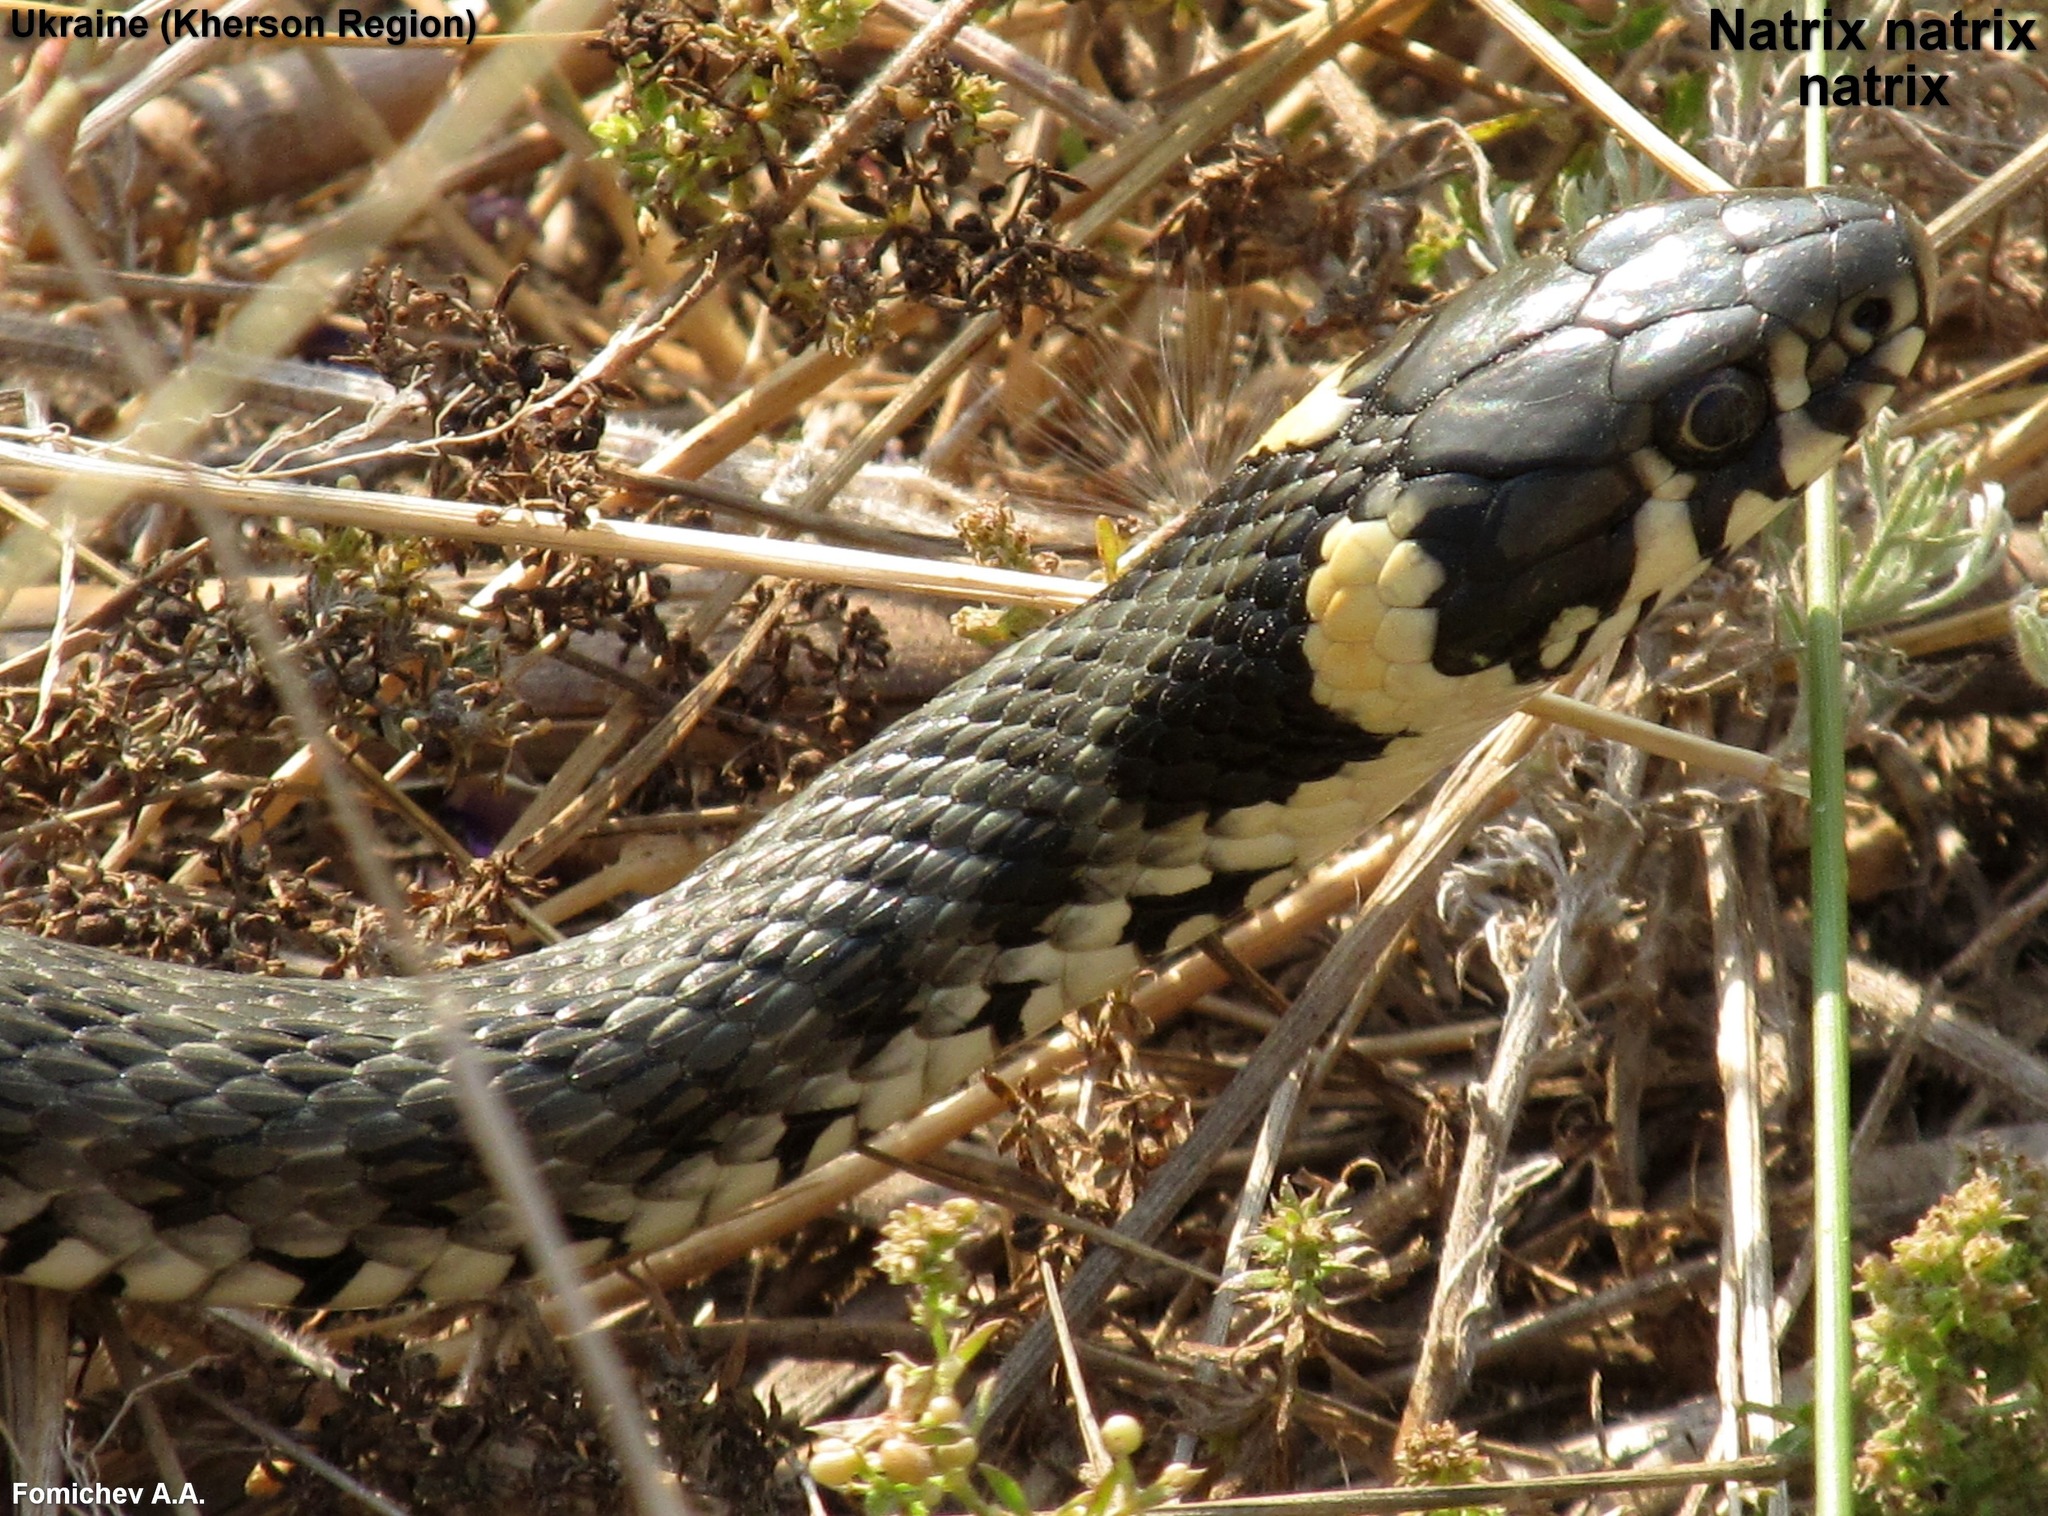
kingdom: Animalia
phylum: Chordata
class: Squamata
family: Colubridae
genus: Natrix
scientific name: Natrix natrix
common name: Grass snake
